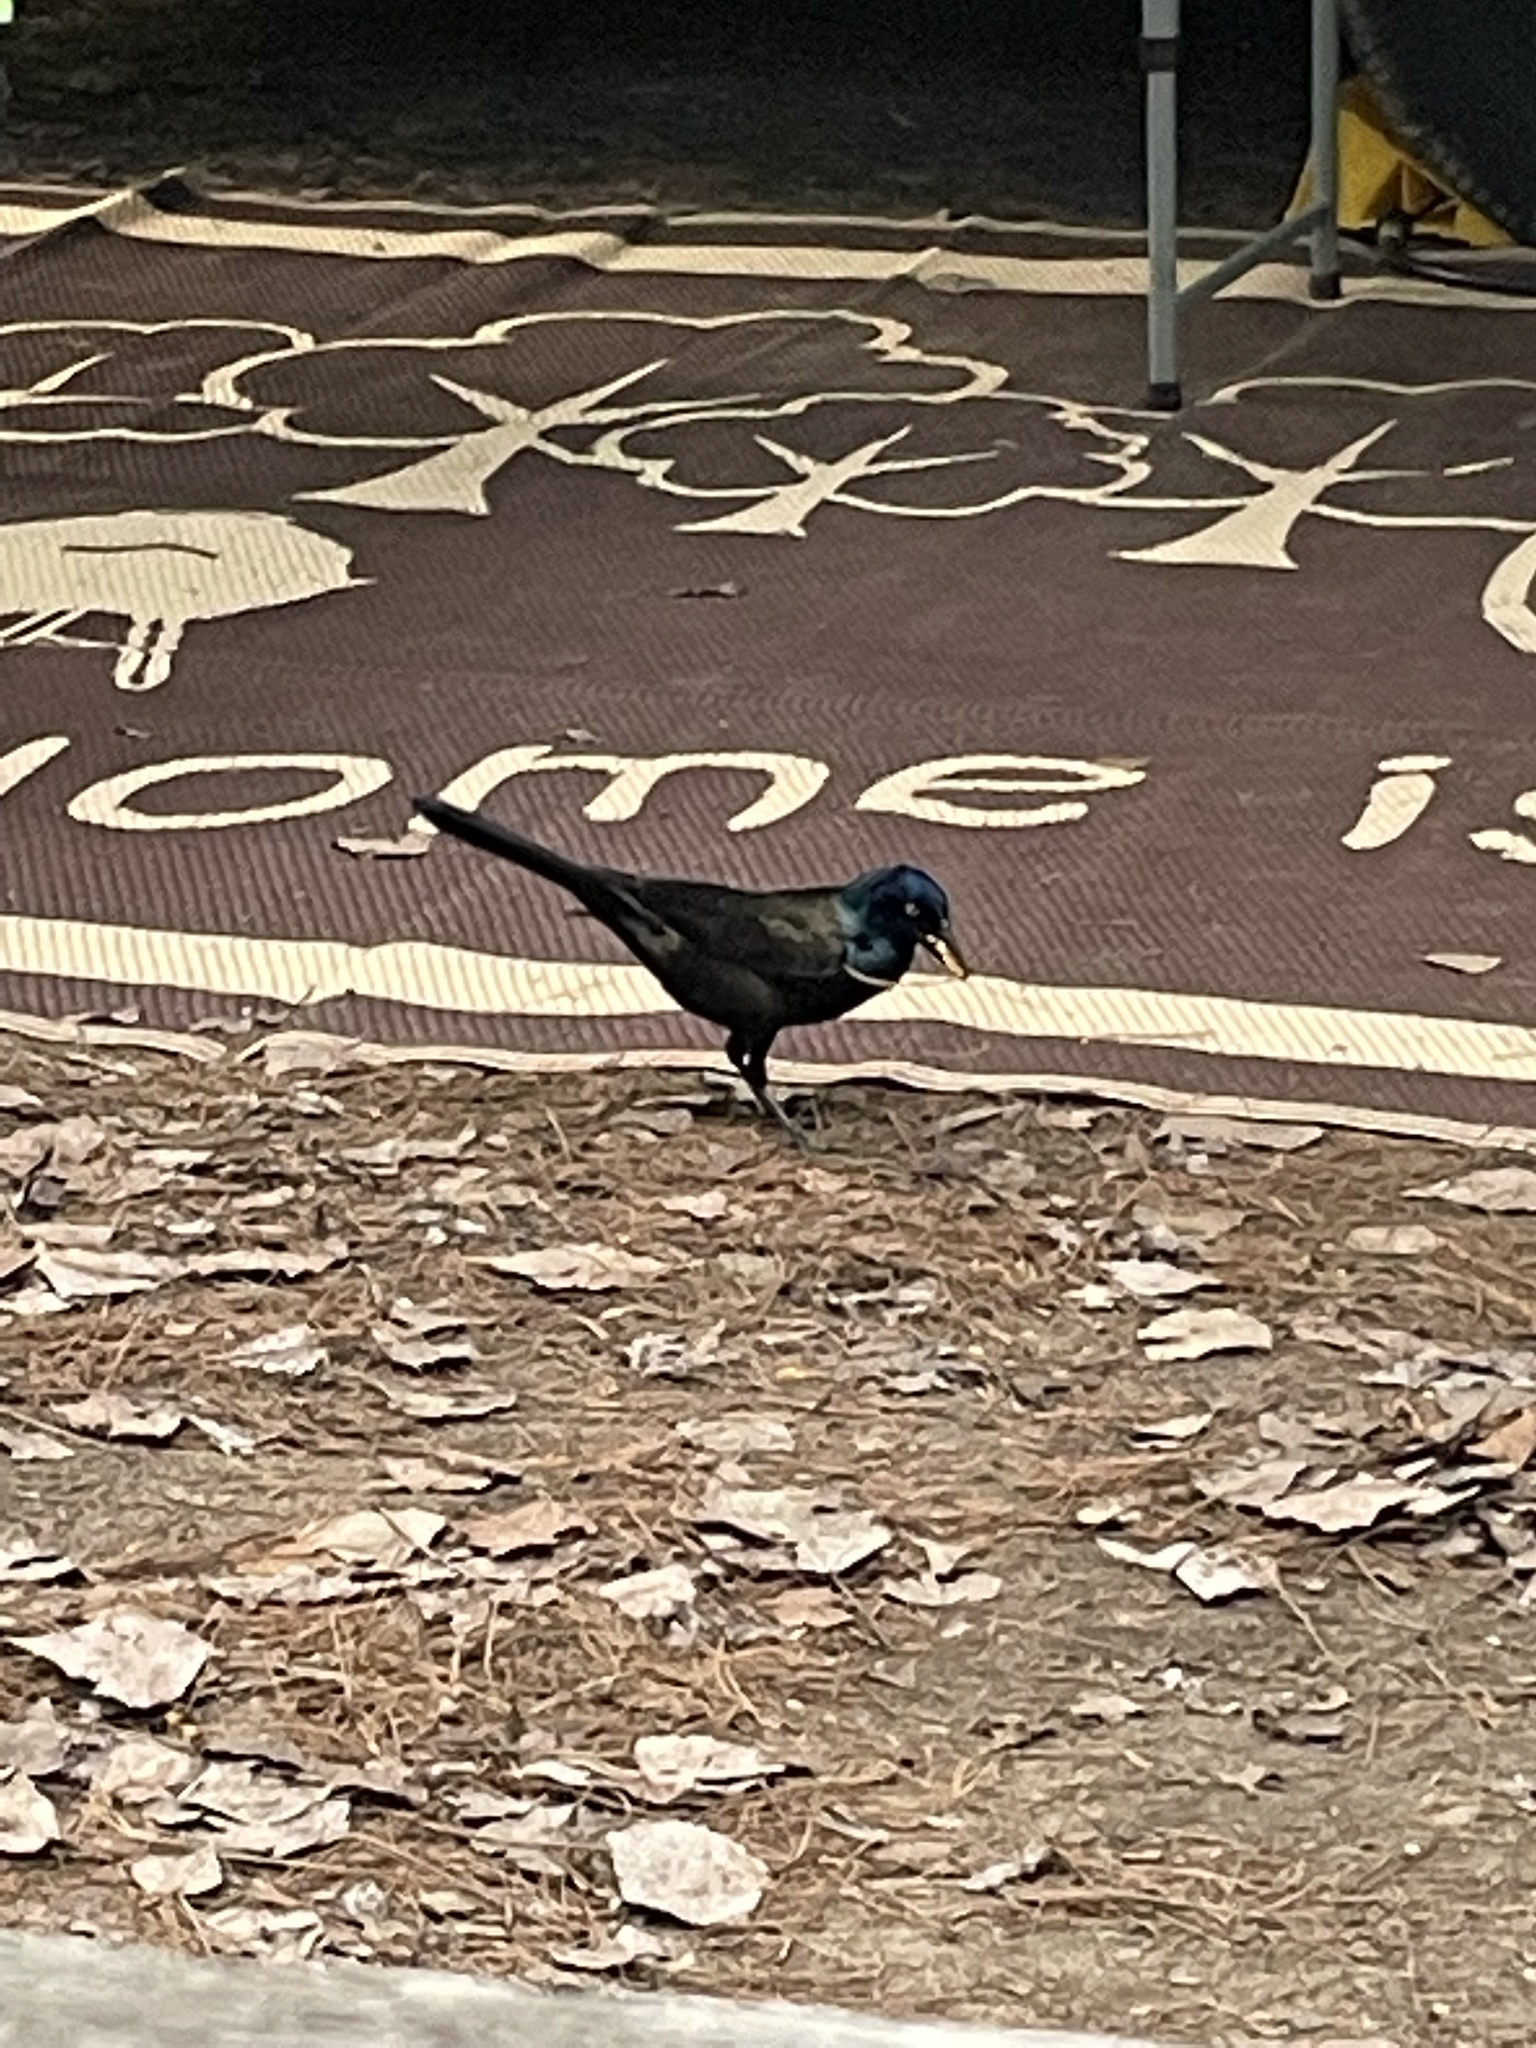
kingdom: Animalia
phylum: Chordata
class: Aves
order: Passeriformes
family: Icteridae
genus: Quiscalus
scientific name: Quiscalus quiscula
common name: Common grackle
